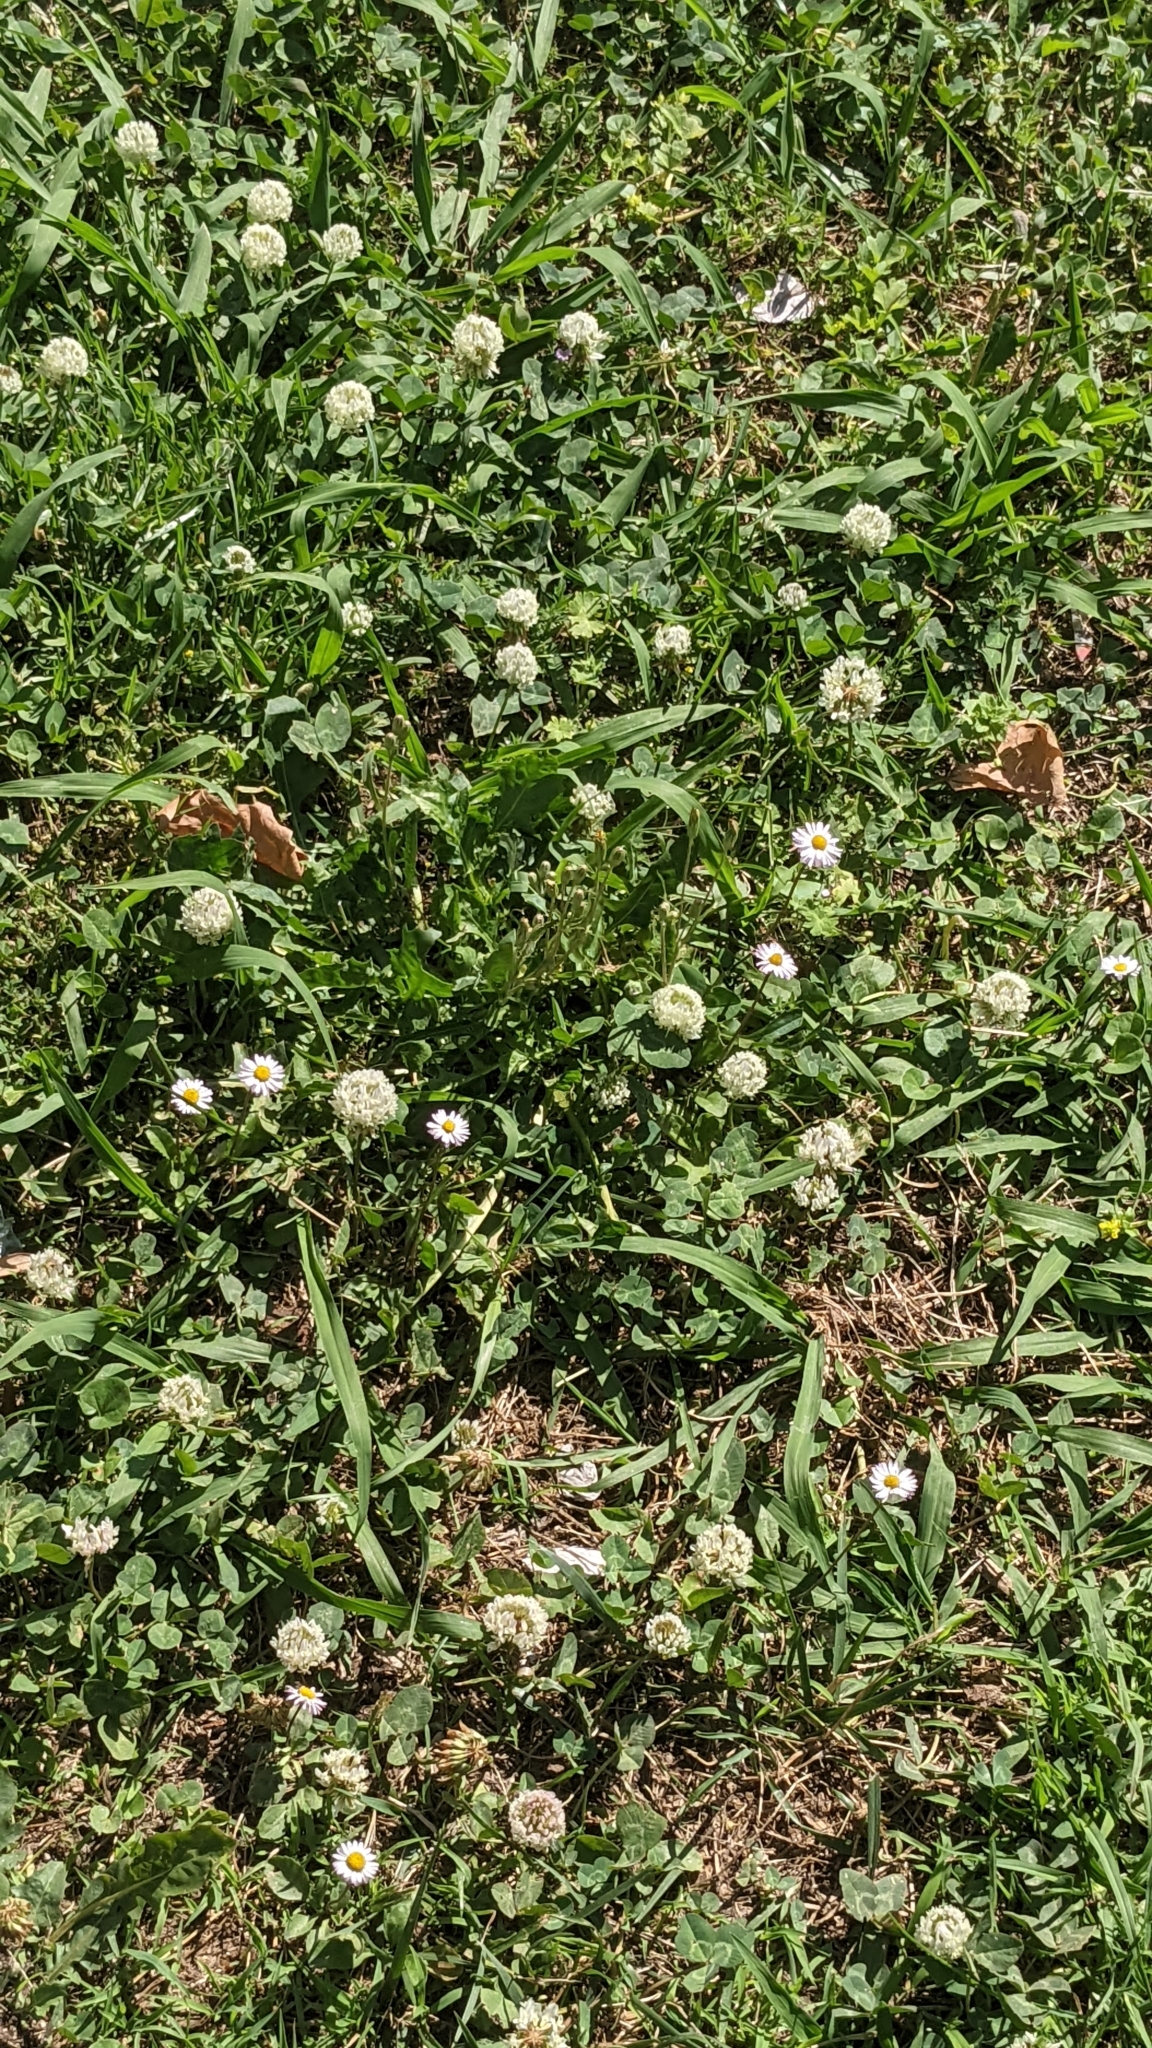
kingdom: Plantae
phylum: Tracheophyta
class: Magnoliopsida
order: Fabales
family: Fabaceae
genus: Trifolium
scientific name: Trifolium repens
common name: White clover
